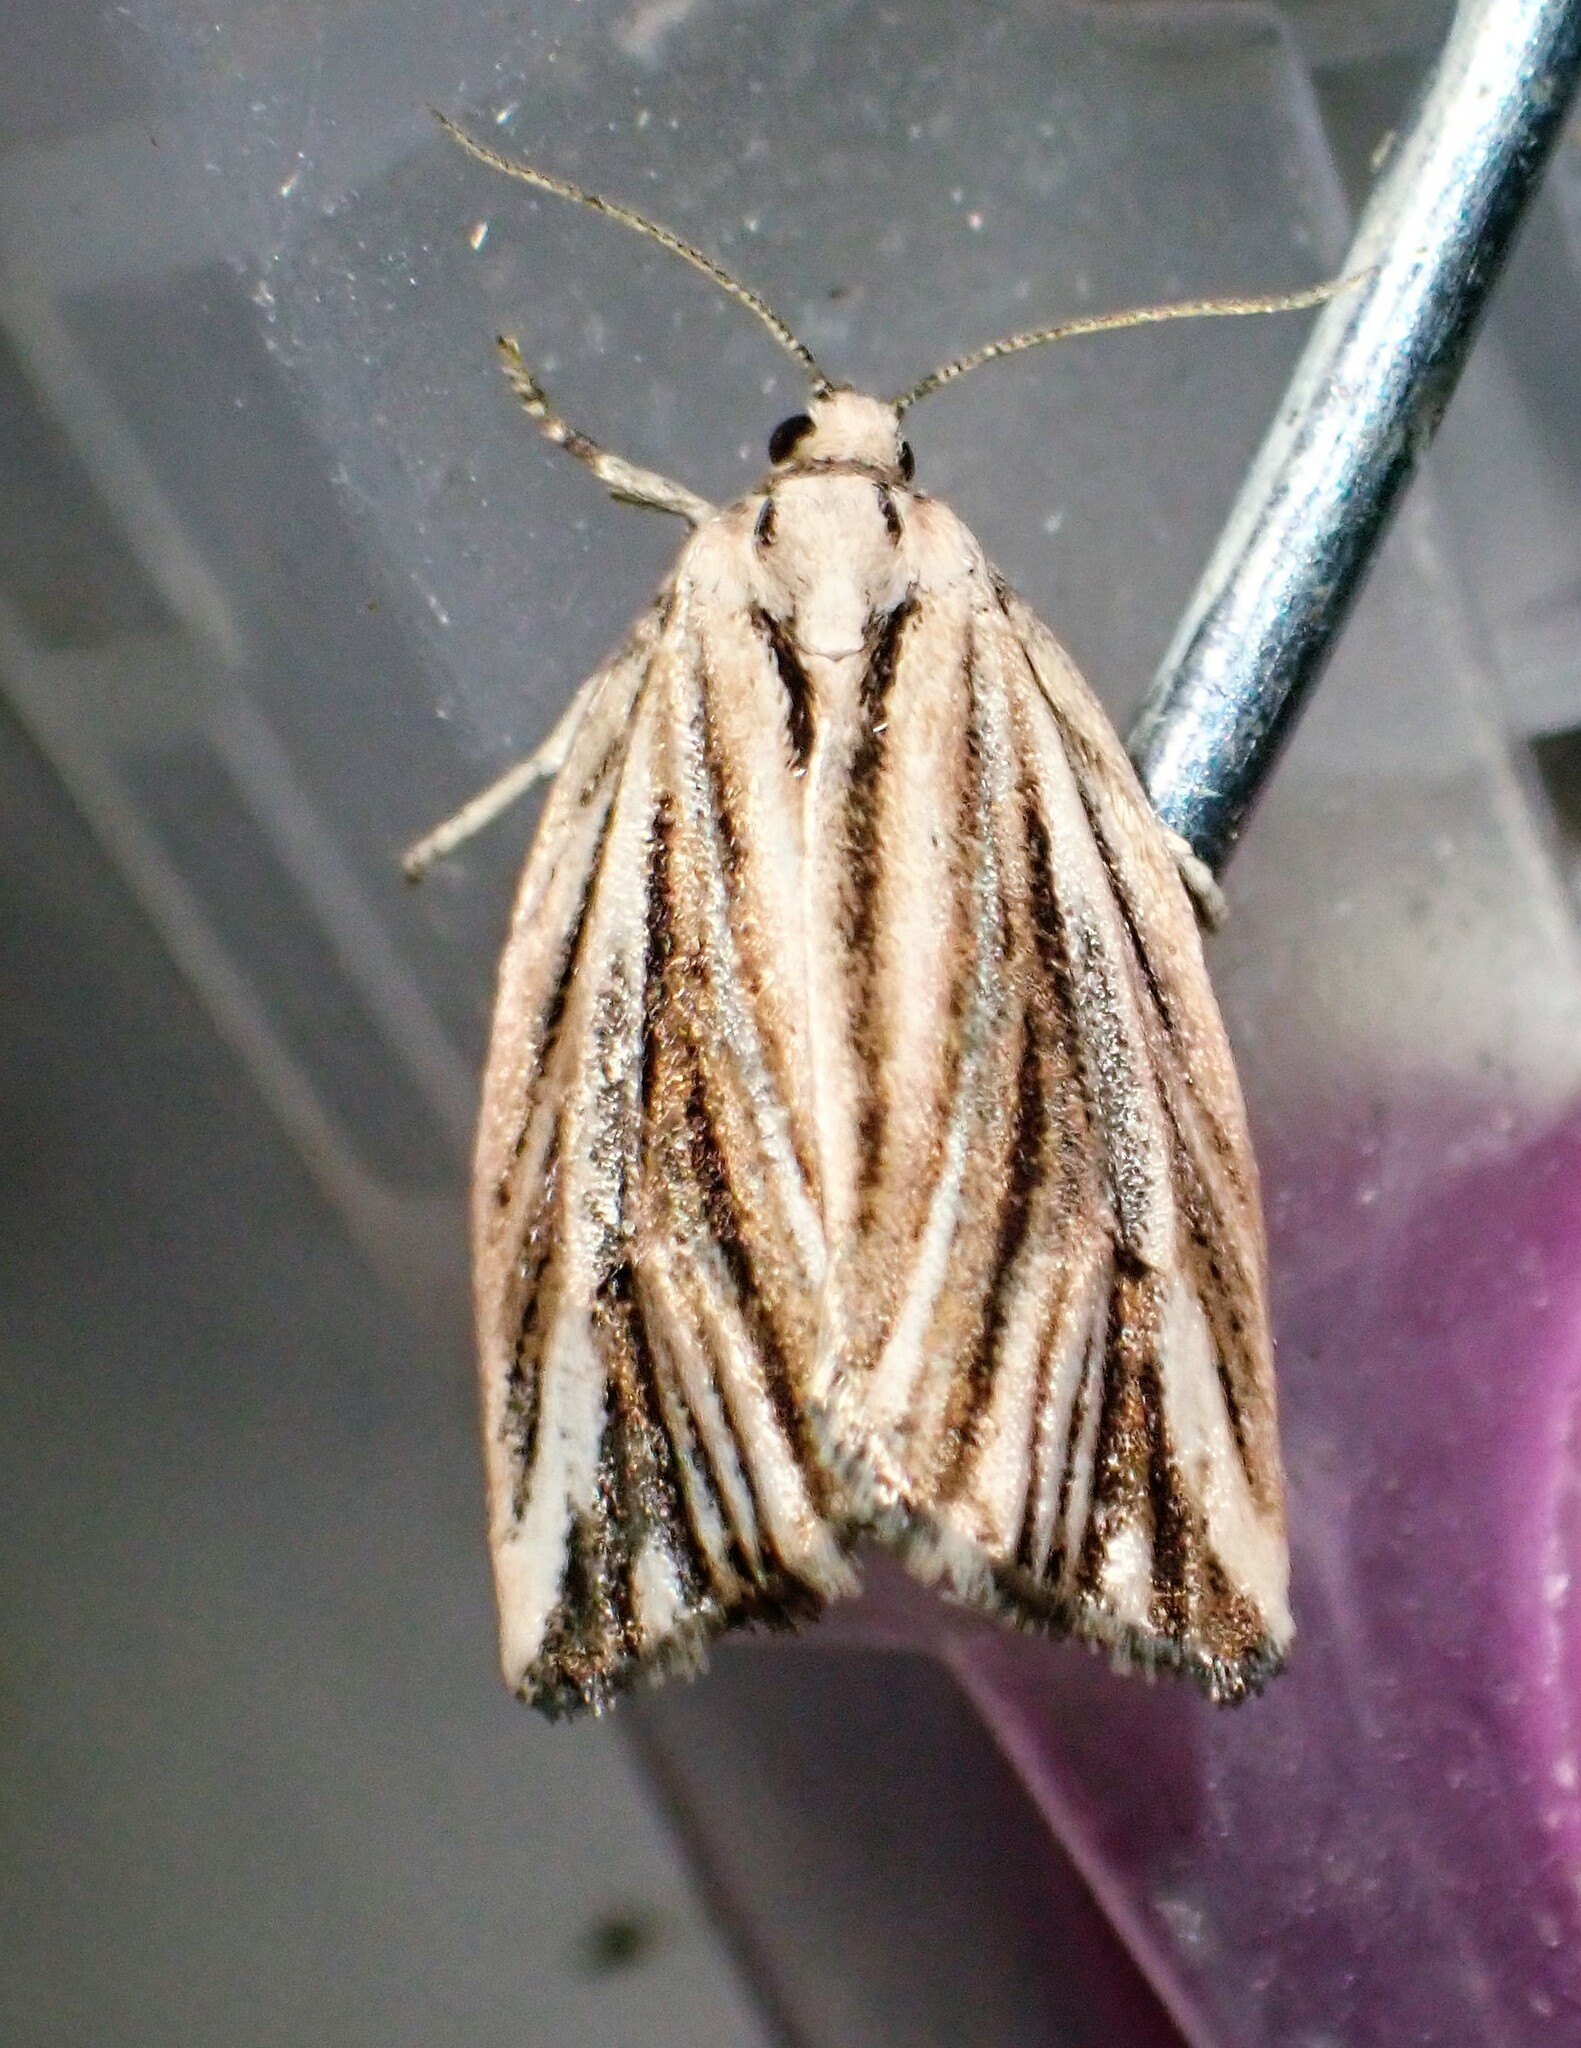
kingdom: Animalia
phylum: Arthropoda
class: Insecta
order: Lepidoptera
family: Tortricidae
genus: Archips
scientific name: Archips strianus
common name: Striated tortrix moth
